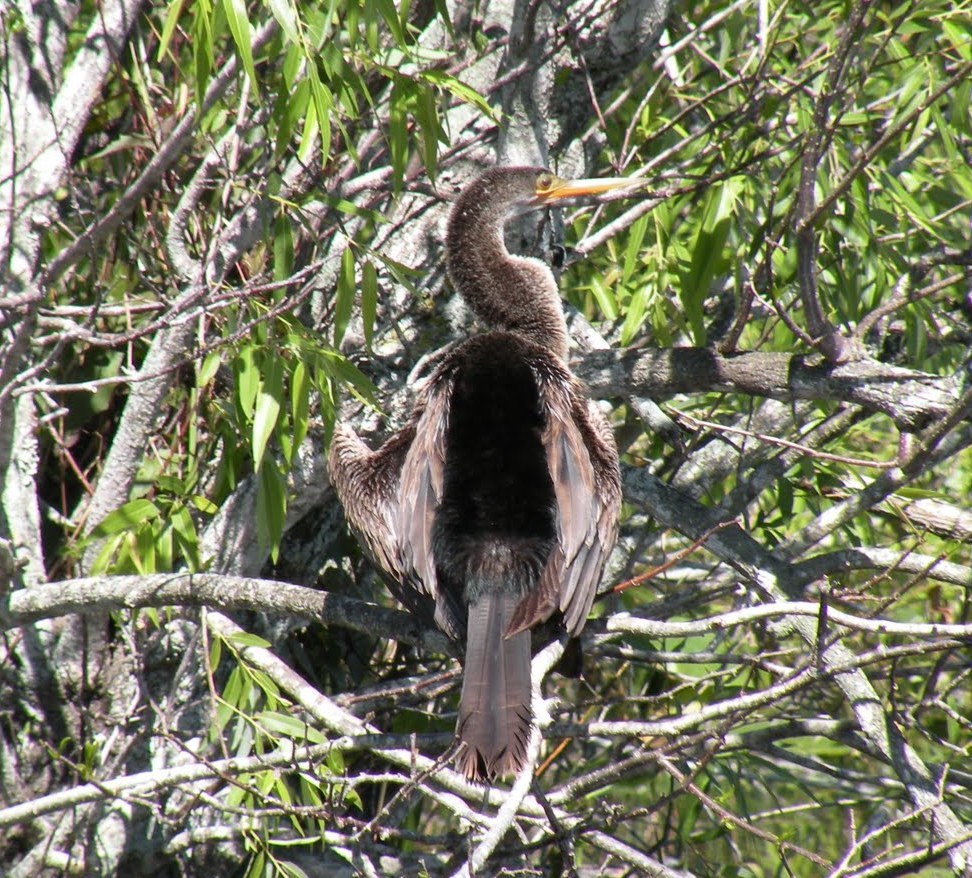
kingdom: Animalia
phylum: Chordata
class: Aves
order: Suliformes
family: Anhingidae
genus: Anhinga
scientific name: Anhinga anhinga
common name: Anhinga
